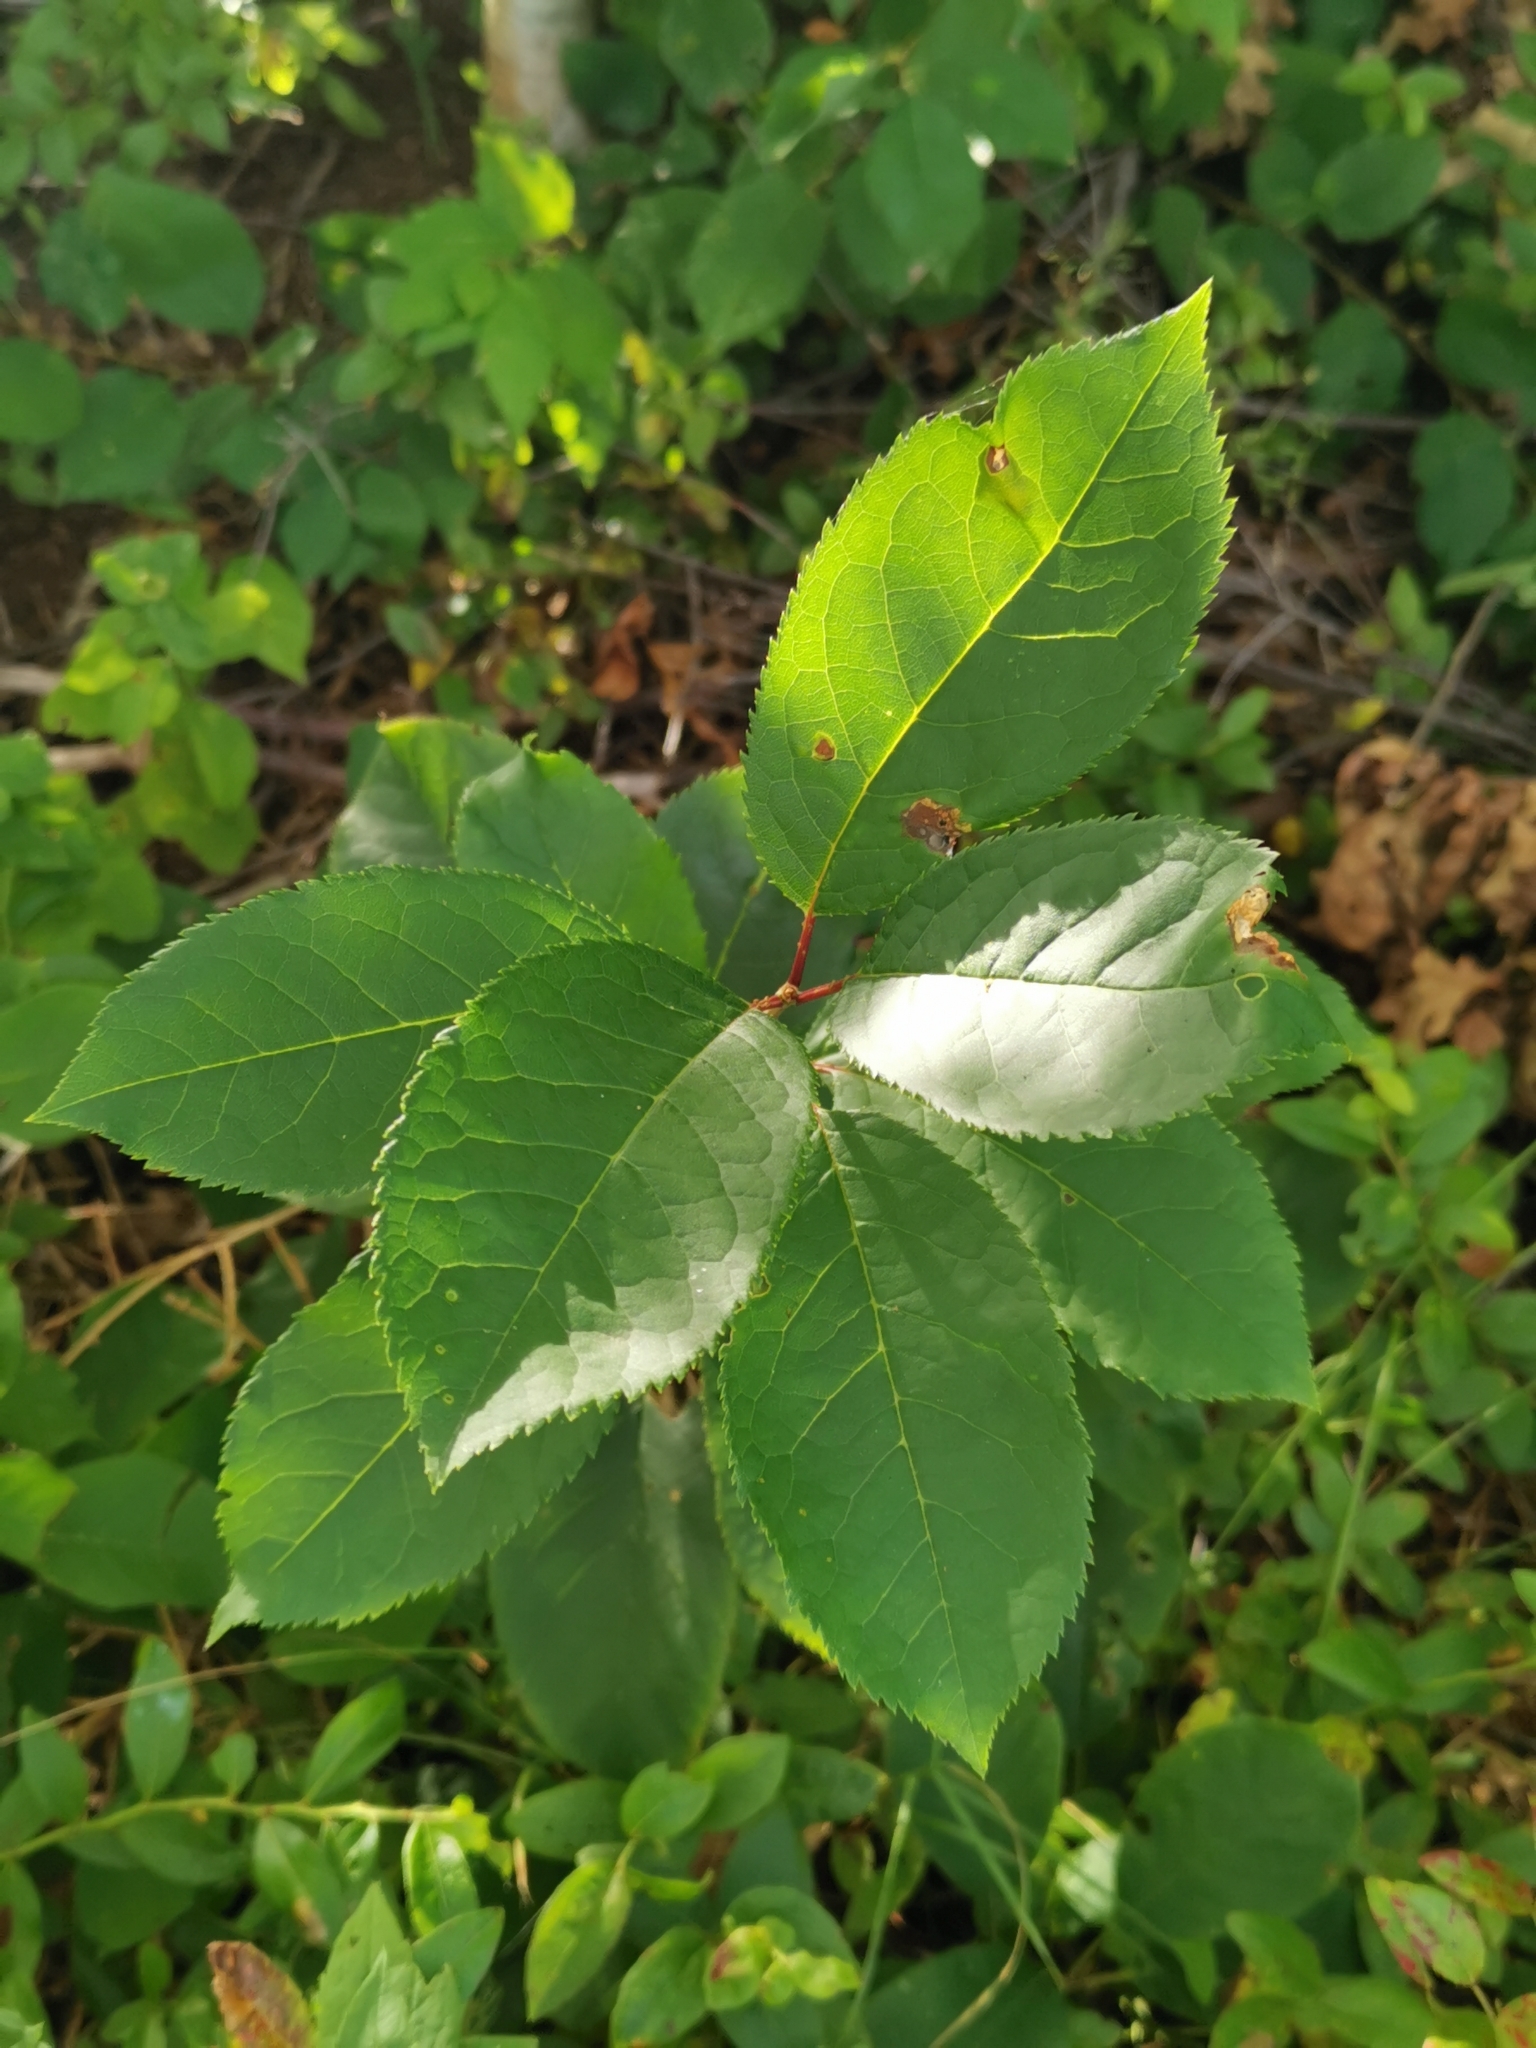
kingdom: Plantae
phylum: Tracheophyta
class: Magnoliopsida
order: Rosales
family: Rosaceae
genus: Prunus
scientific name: Prunus virginiana
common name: Chokecherry
